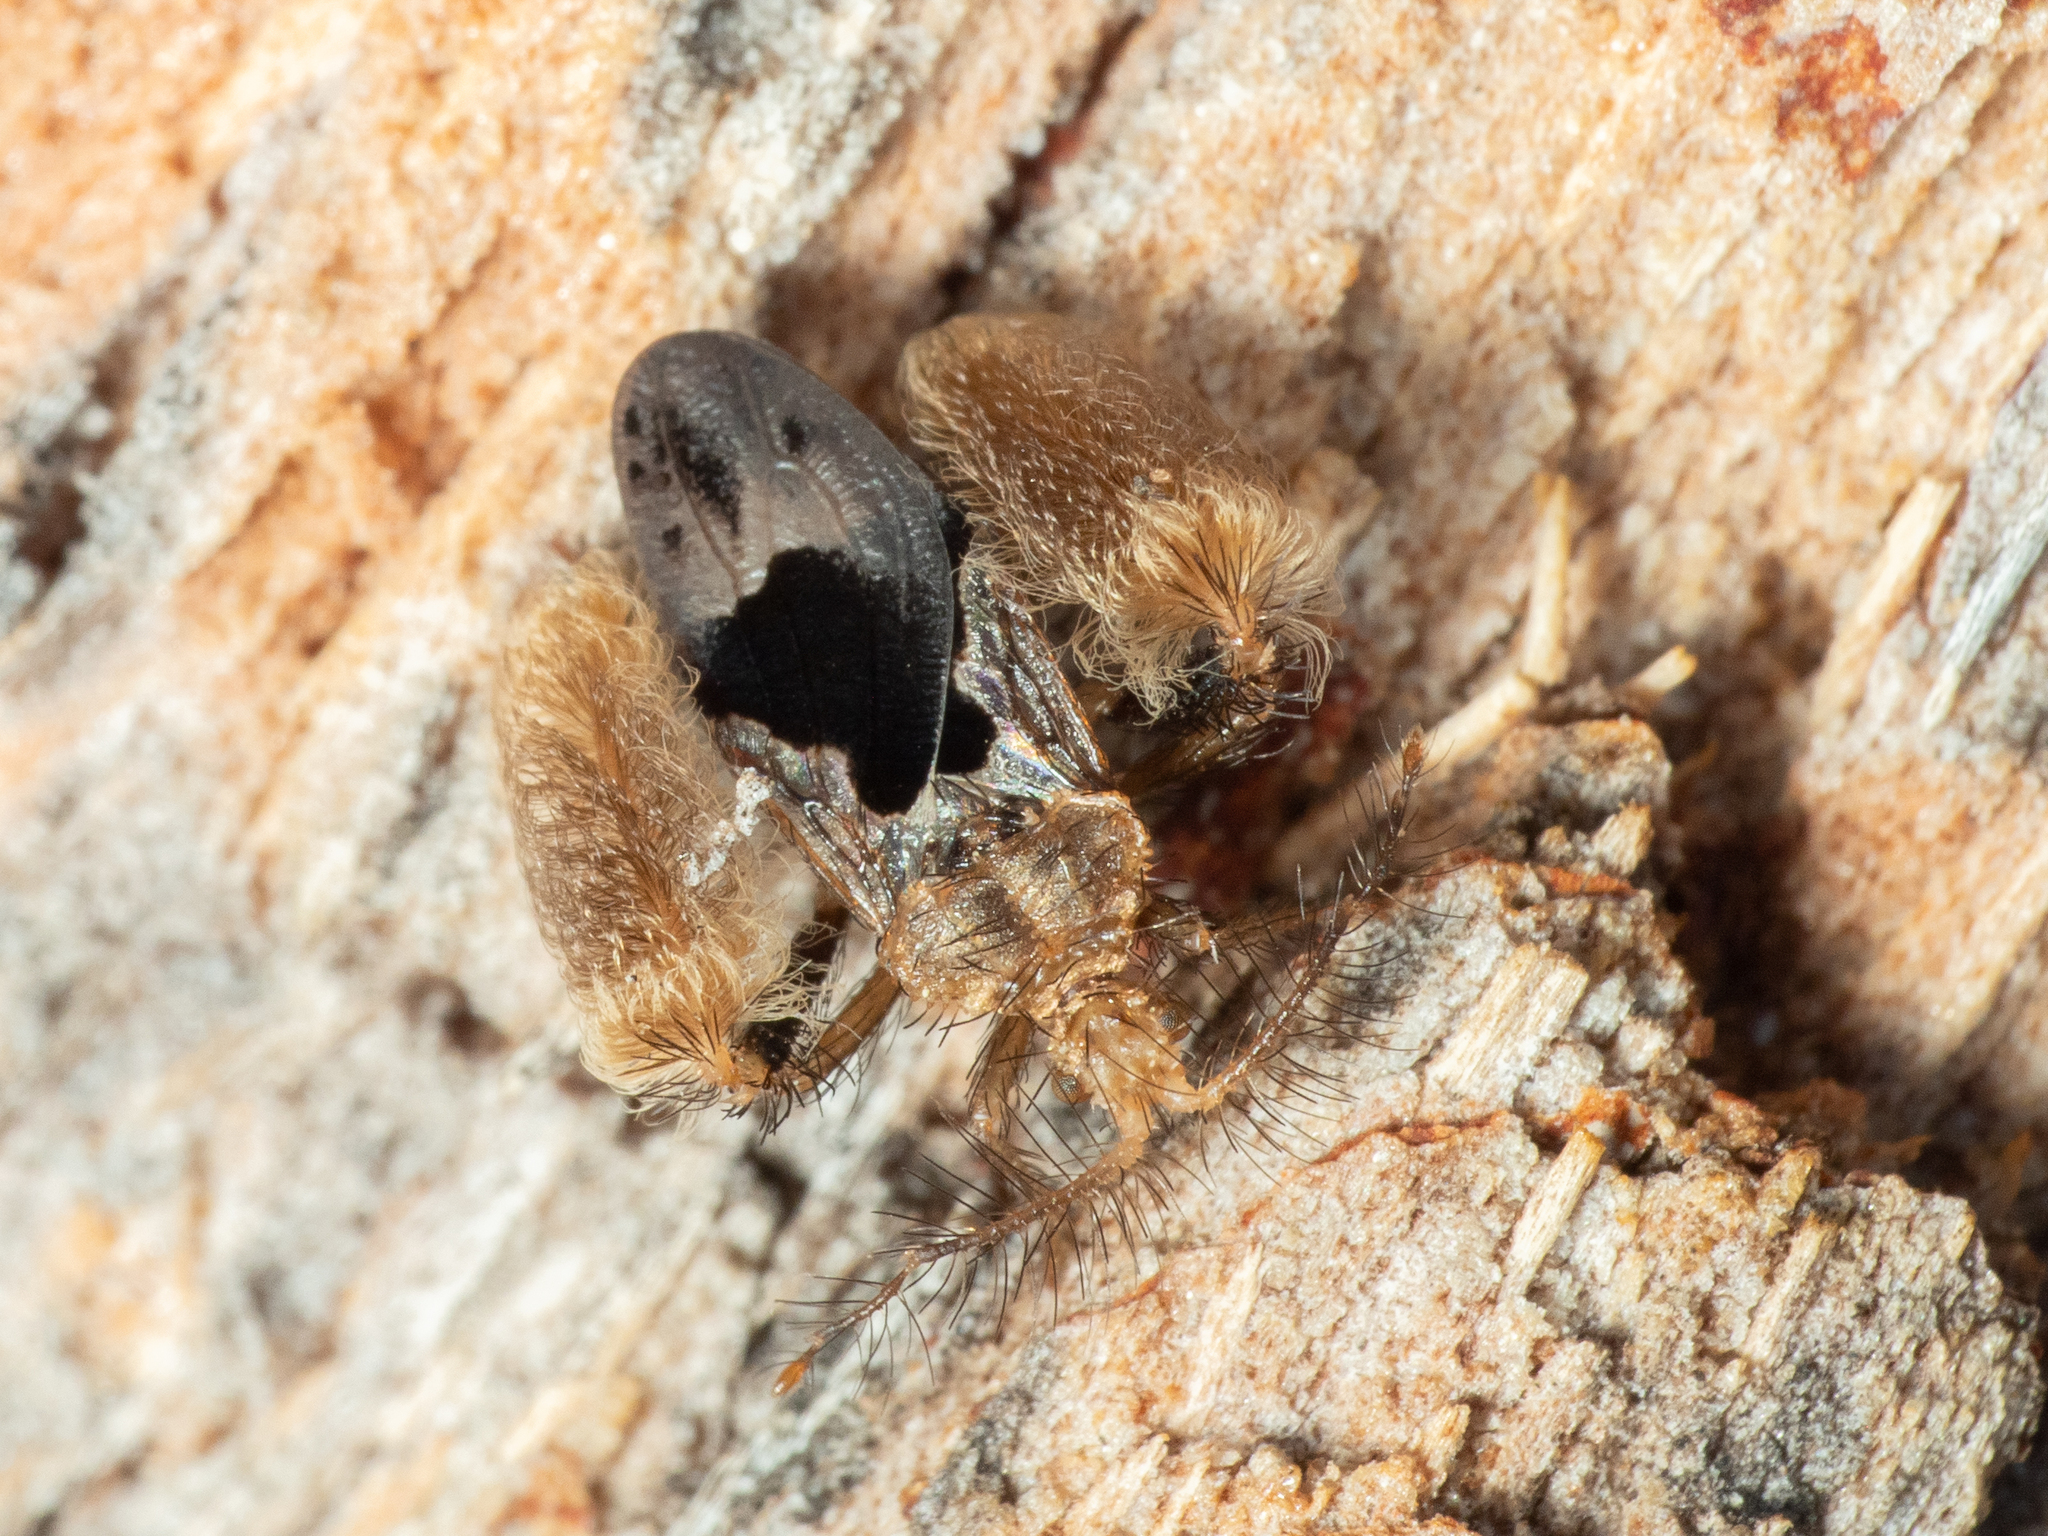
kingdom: Animalia
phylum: Arthropoda
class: Insecta
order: Hemiptera
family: Reduviidae
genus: Ptilocnemus
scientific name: Ptilocnemus sidnicus
